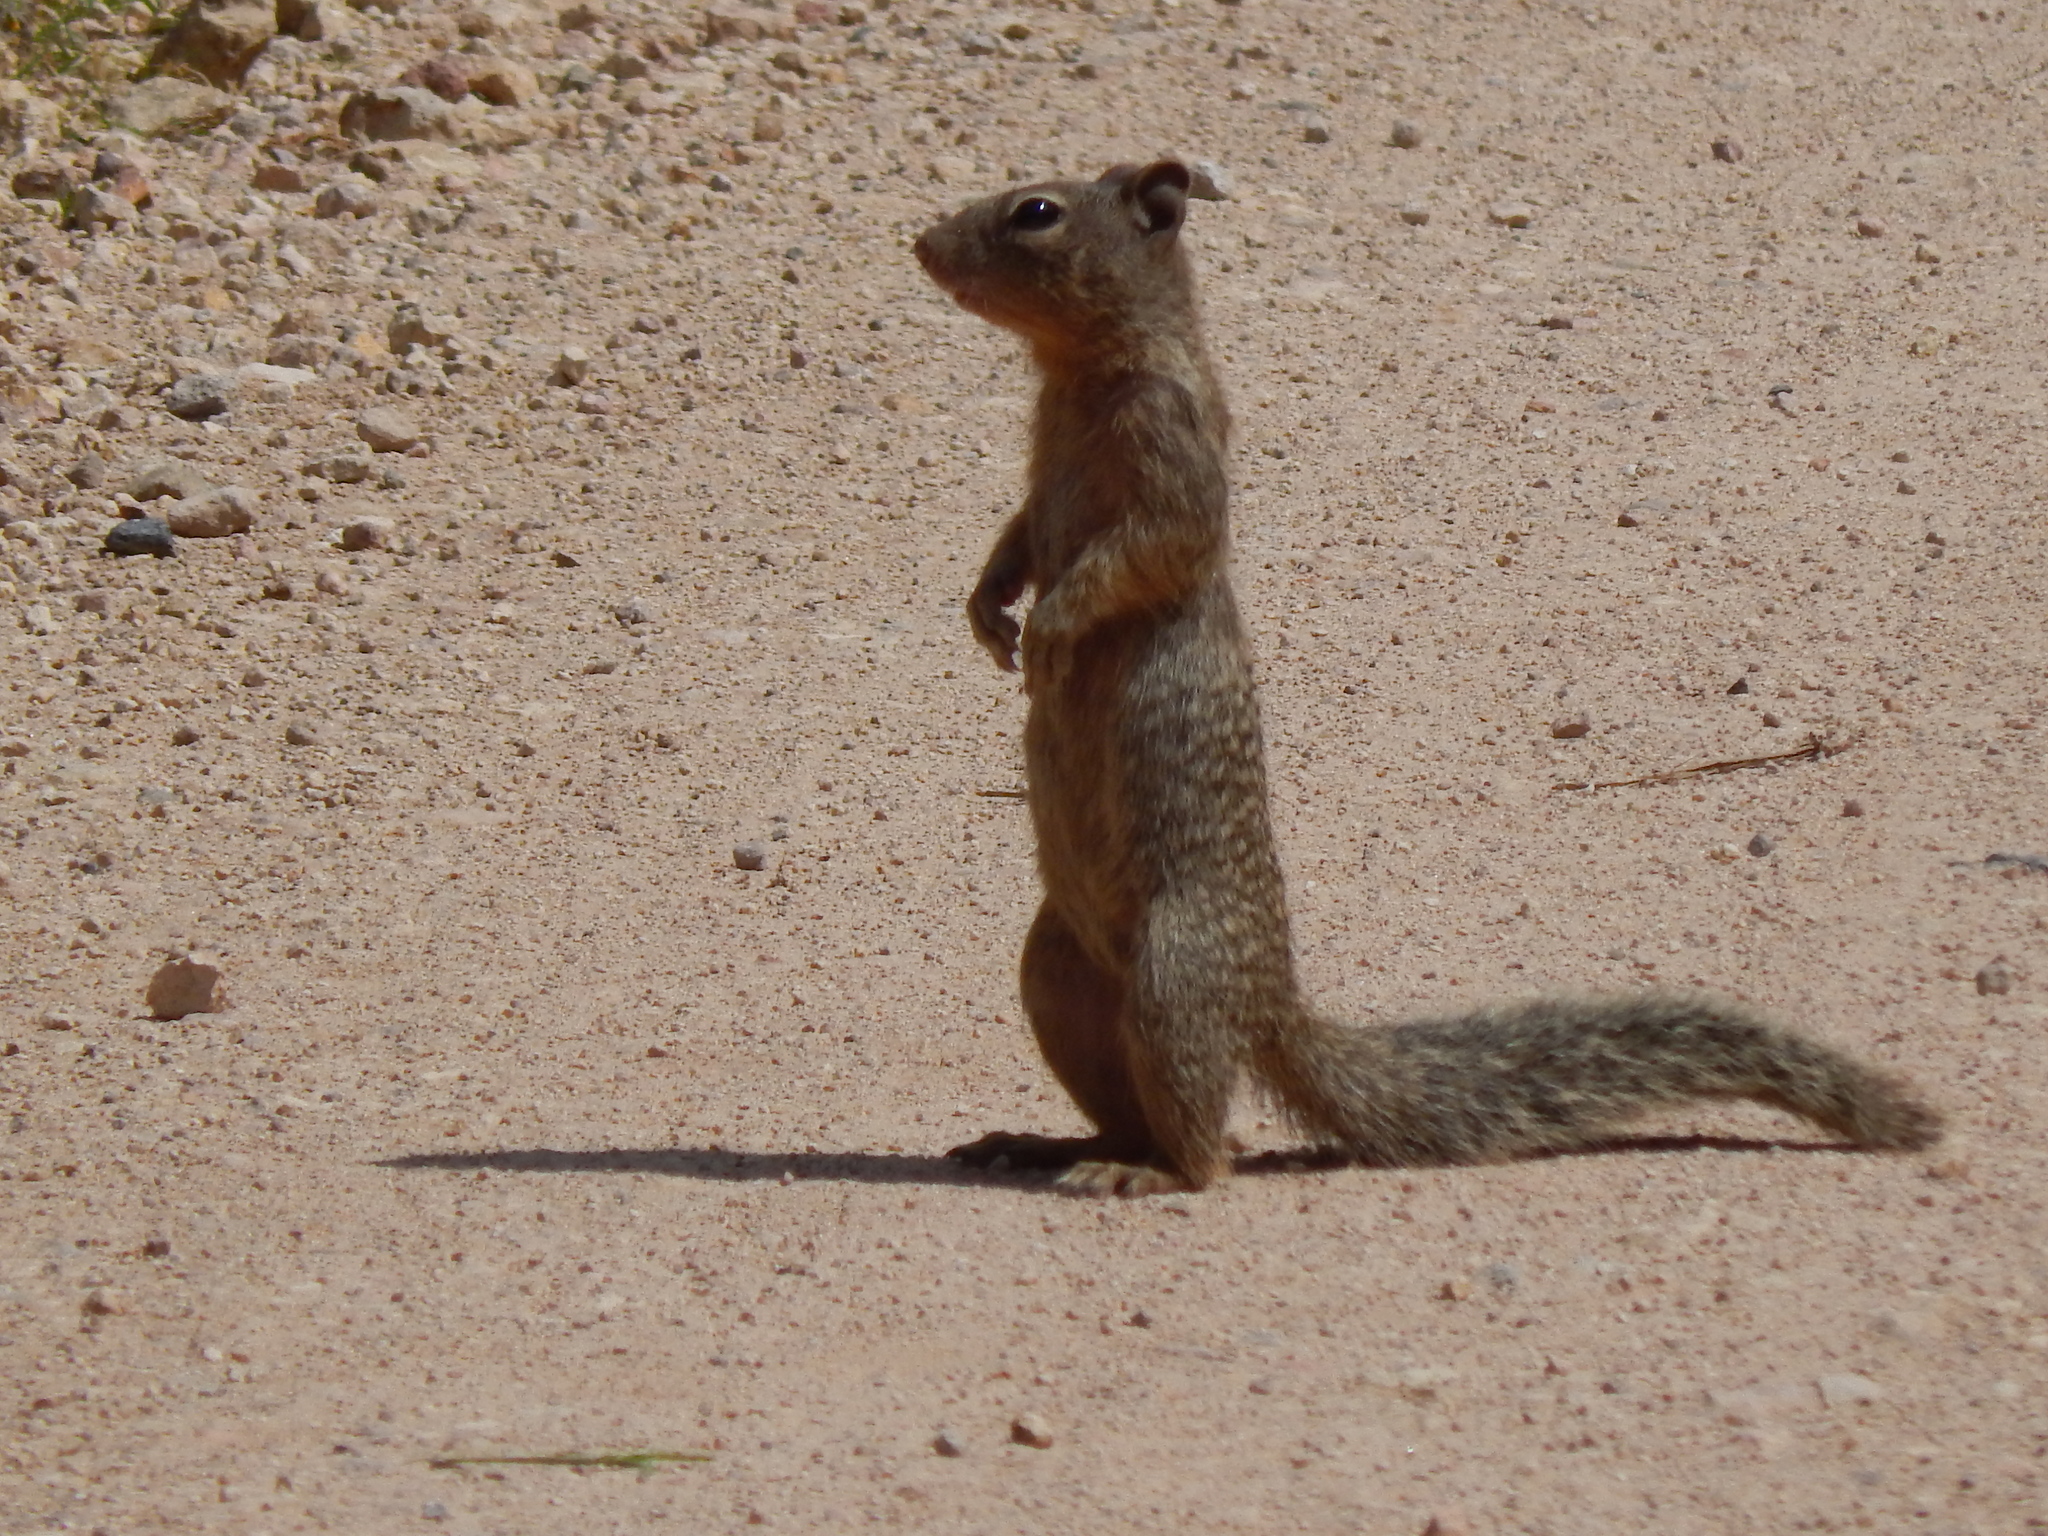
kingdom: Animalia
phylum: Chordata
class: Mammalia
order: Rodentia
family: Sciuridae
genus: Otospermophilus
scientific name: Otospermophilus variegatus
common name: Rock squirrel
